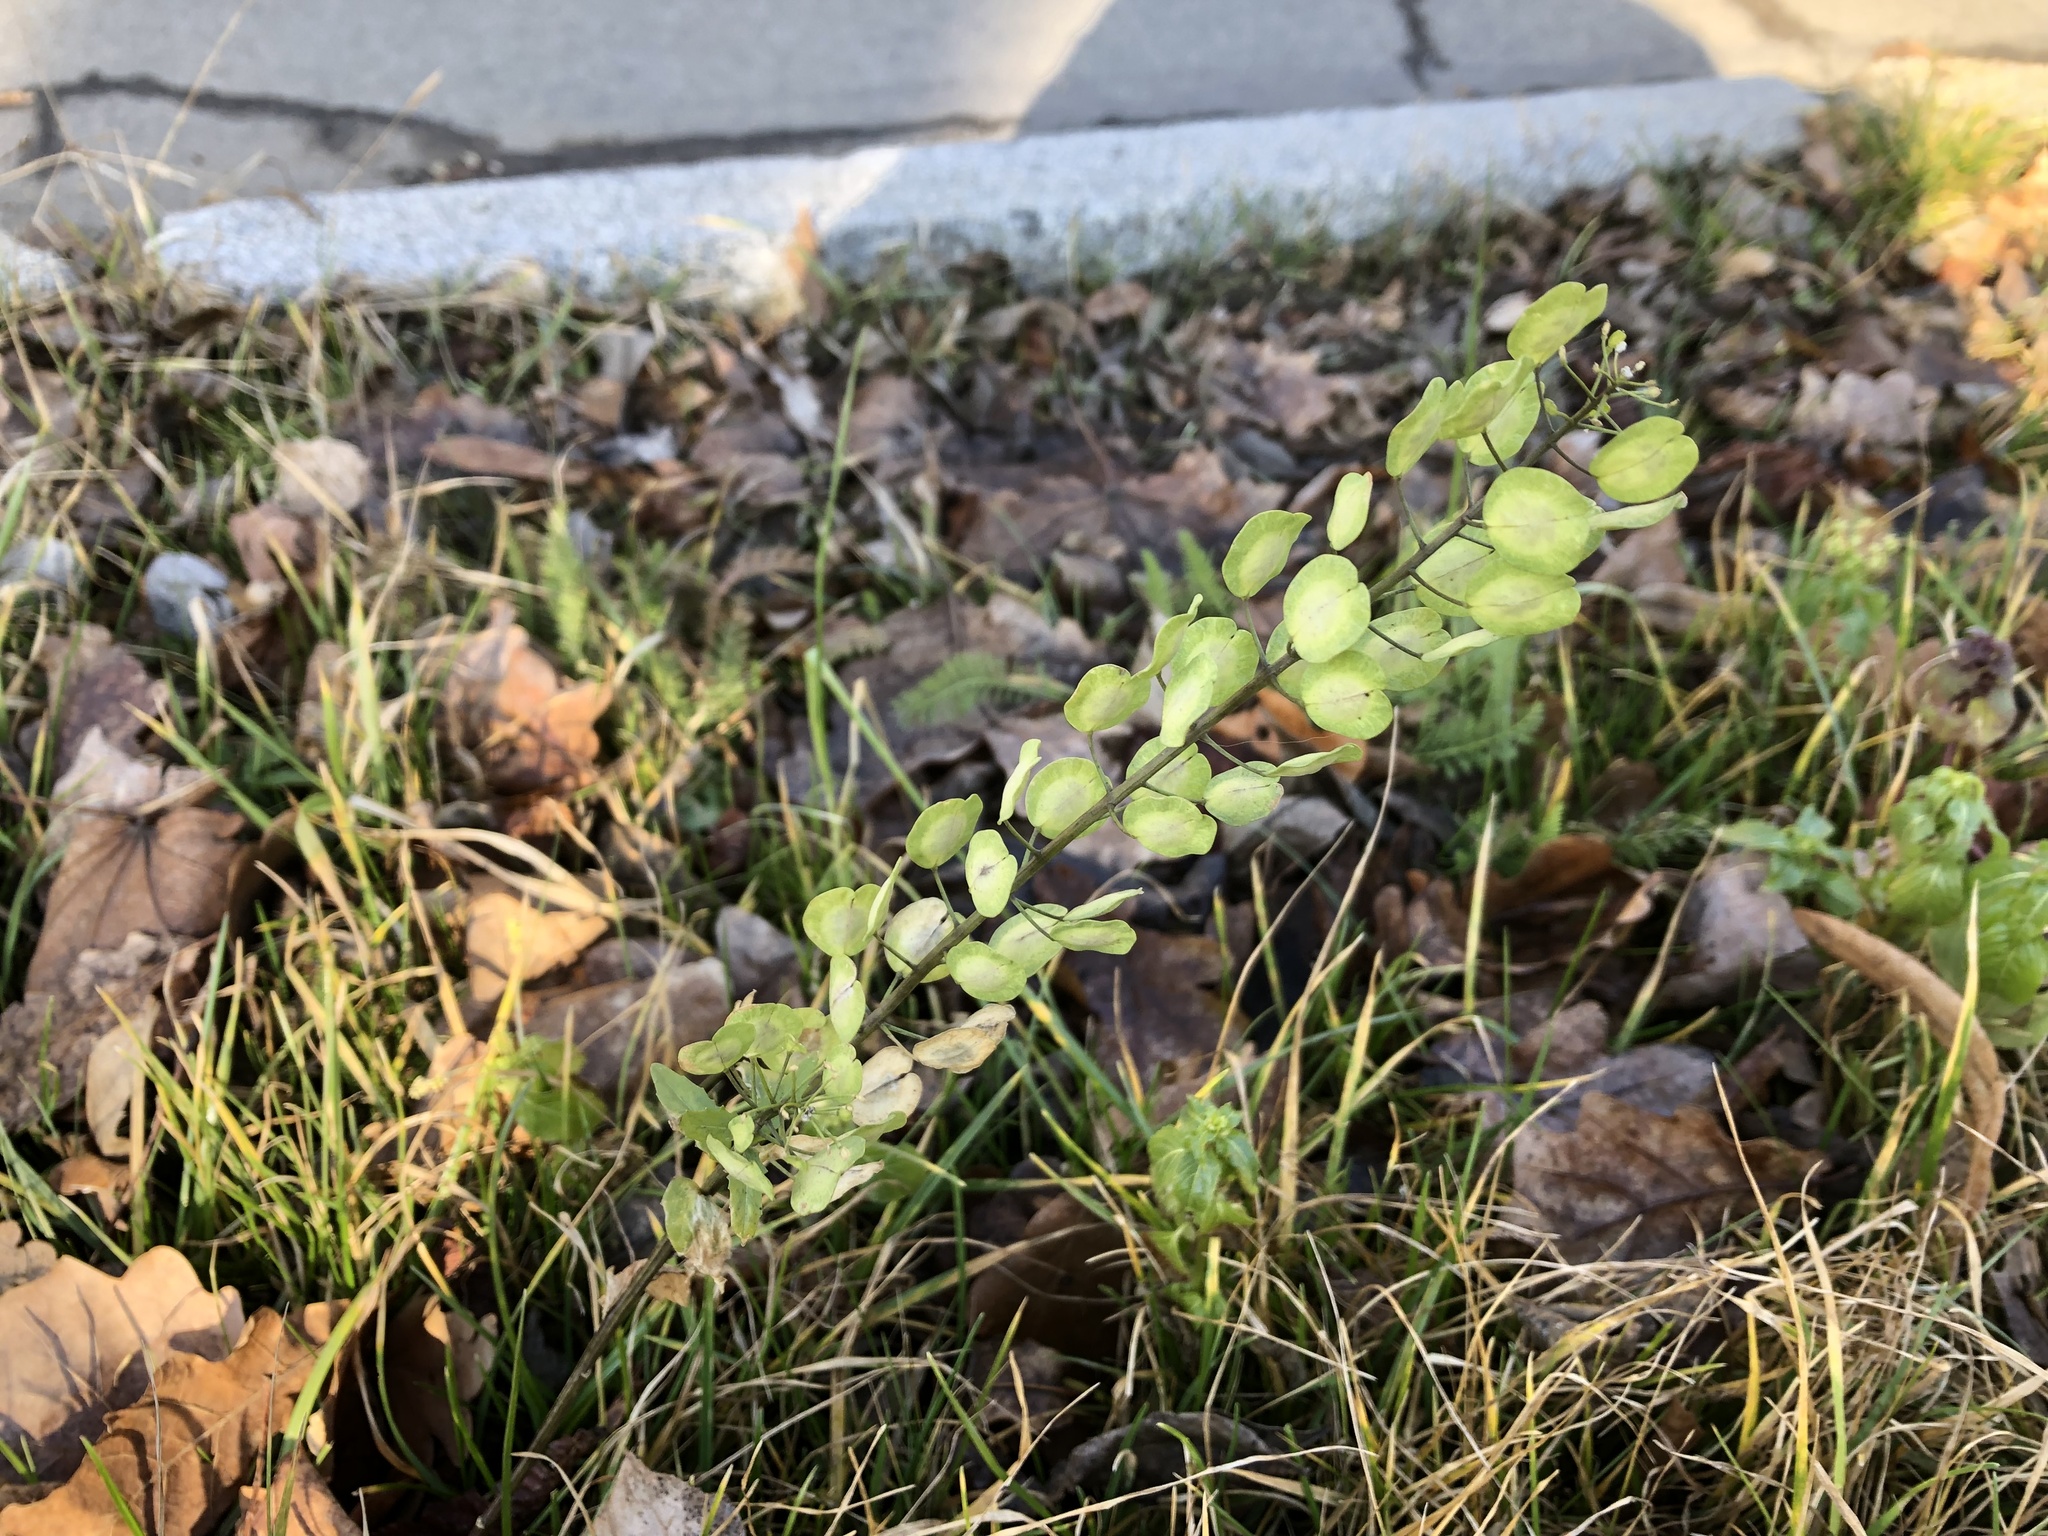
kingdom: Plantae
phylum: Tracheophyta
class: Magnoliopsida
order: Brassicales
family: Brassicaceae
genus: Thlaspi
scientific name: Thlaspi arvense
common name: Field pennycress
